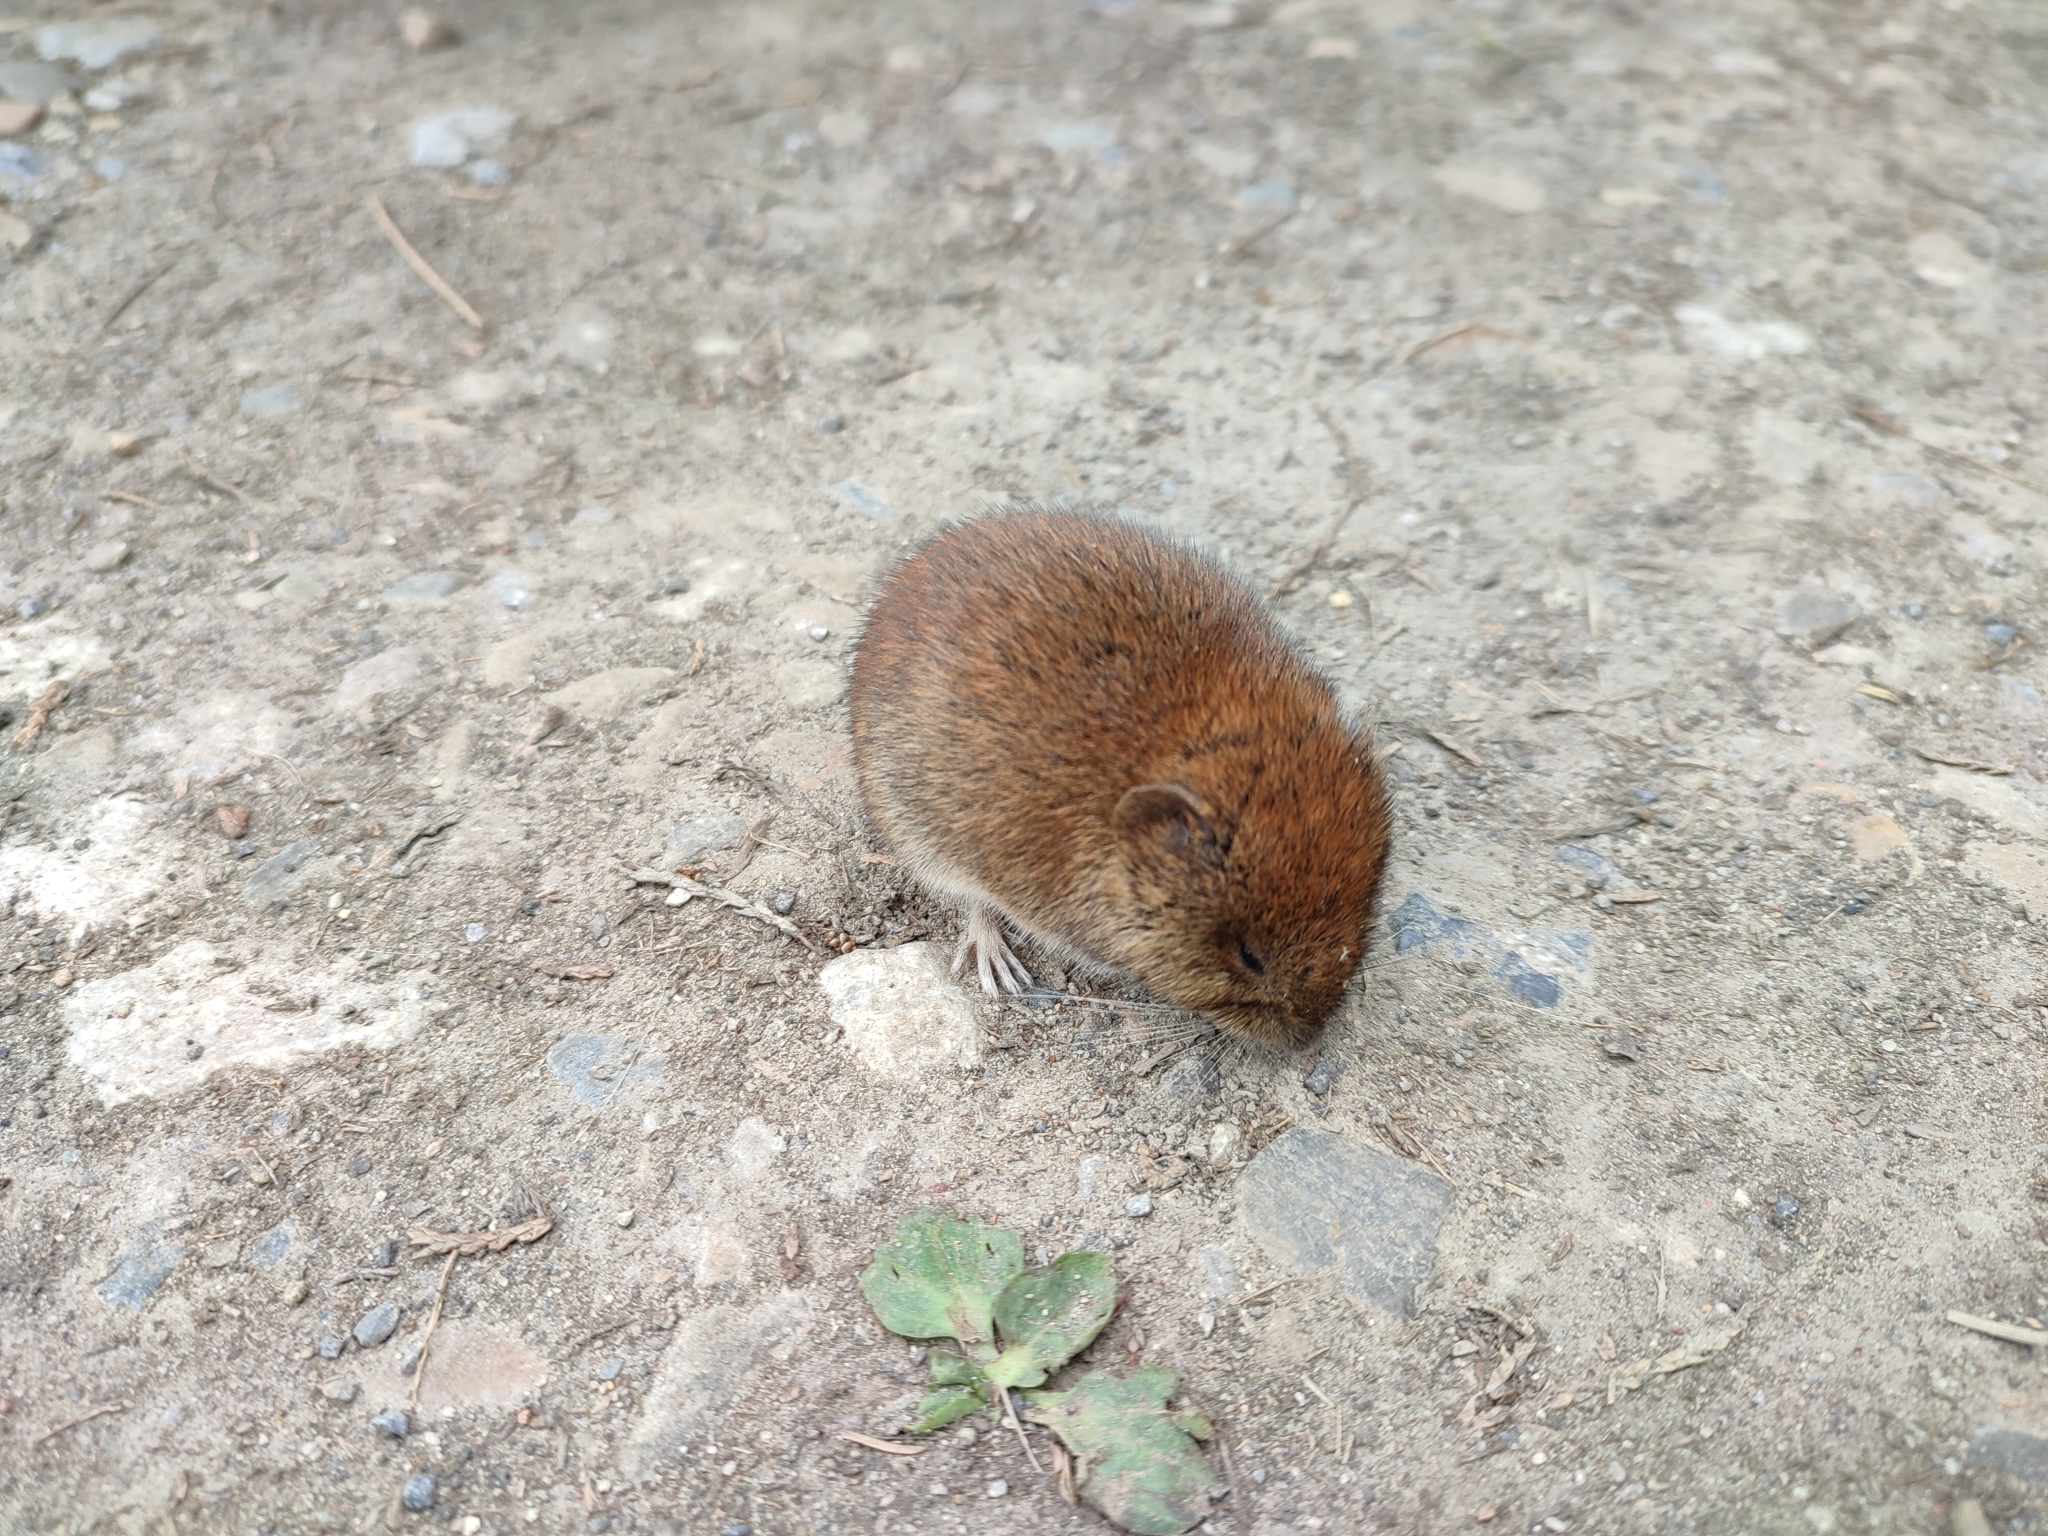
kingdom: Animalia
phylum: Chordata
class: Mammalia
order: Rodentia
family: Cricetidae
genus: Myodes
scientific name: Myodes glareolus
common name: Bank vole
